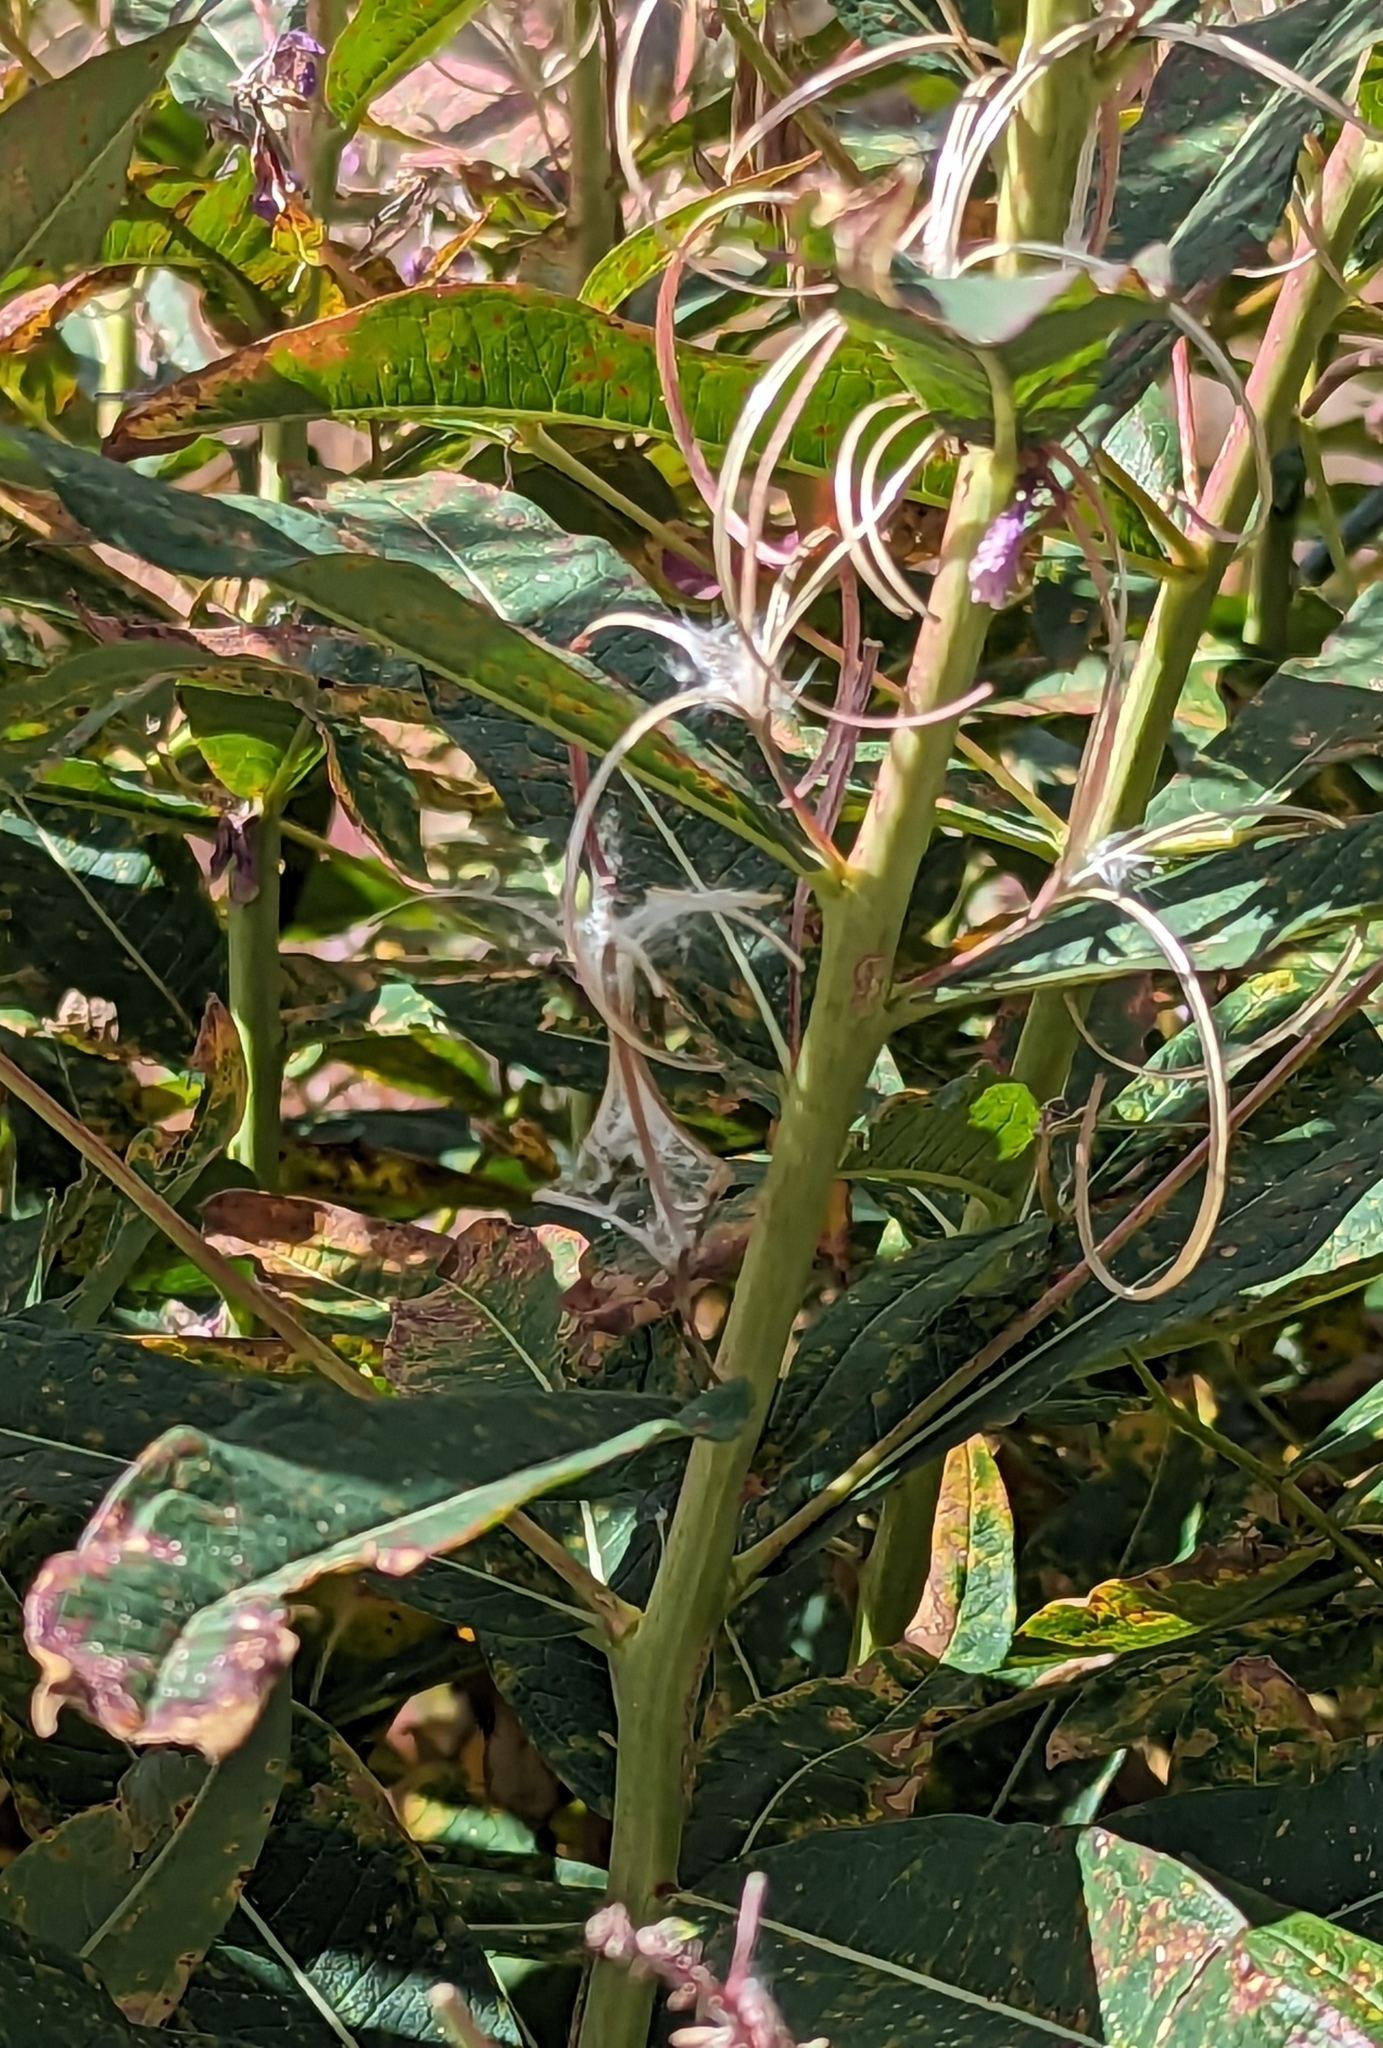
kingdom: Plantae
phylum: Tracheophyta
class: Magnoliopsida
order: Myrtales
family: Onagraceae
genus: Chamaenerion
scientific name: Chamaenerion angustifolium
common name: Fireweed
